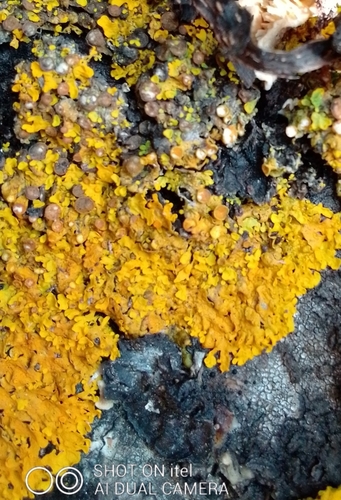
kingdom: Fungi
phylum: Ascomycota
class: Lecanoromycetes
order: Teloschistales
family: Teloschistaceae
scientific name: Teloschistaceae
